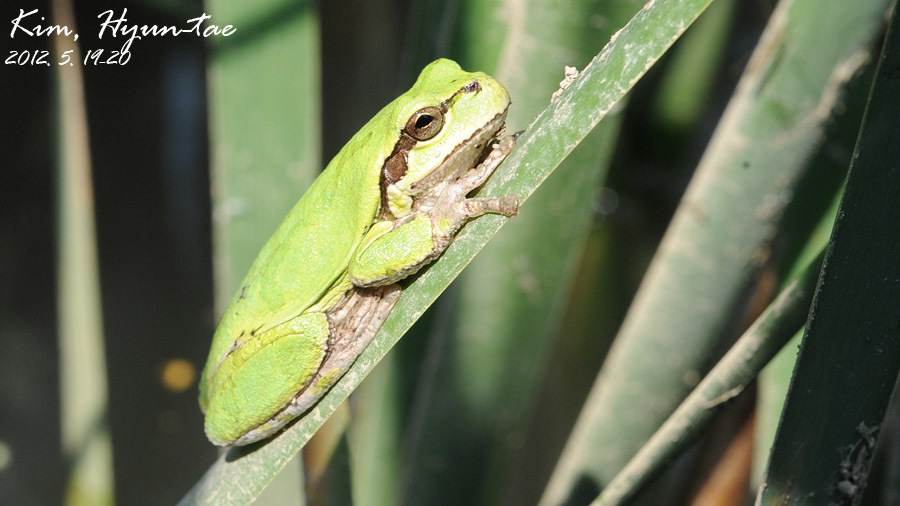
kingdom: Animalia
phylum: Chordata
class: Amphibia
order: Anura
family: Hylidae
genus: Dryophytes
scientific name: Dryophytes japonicus
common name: Japanese treefrog
